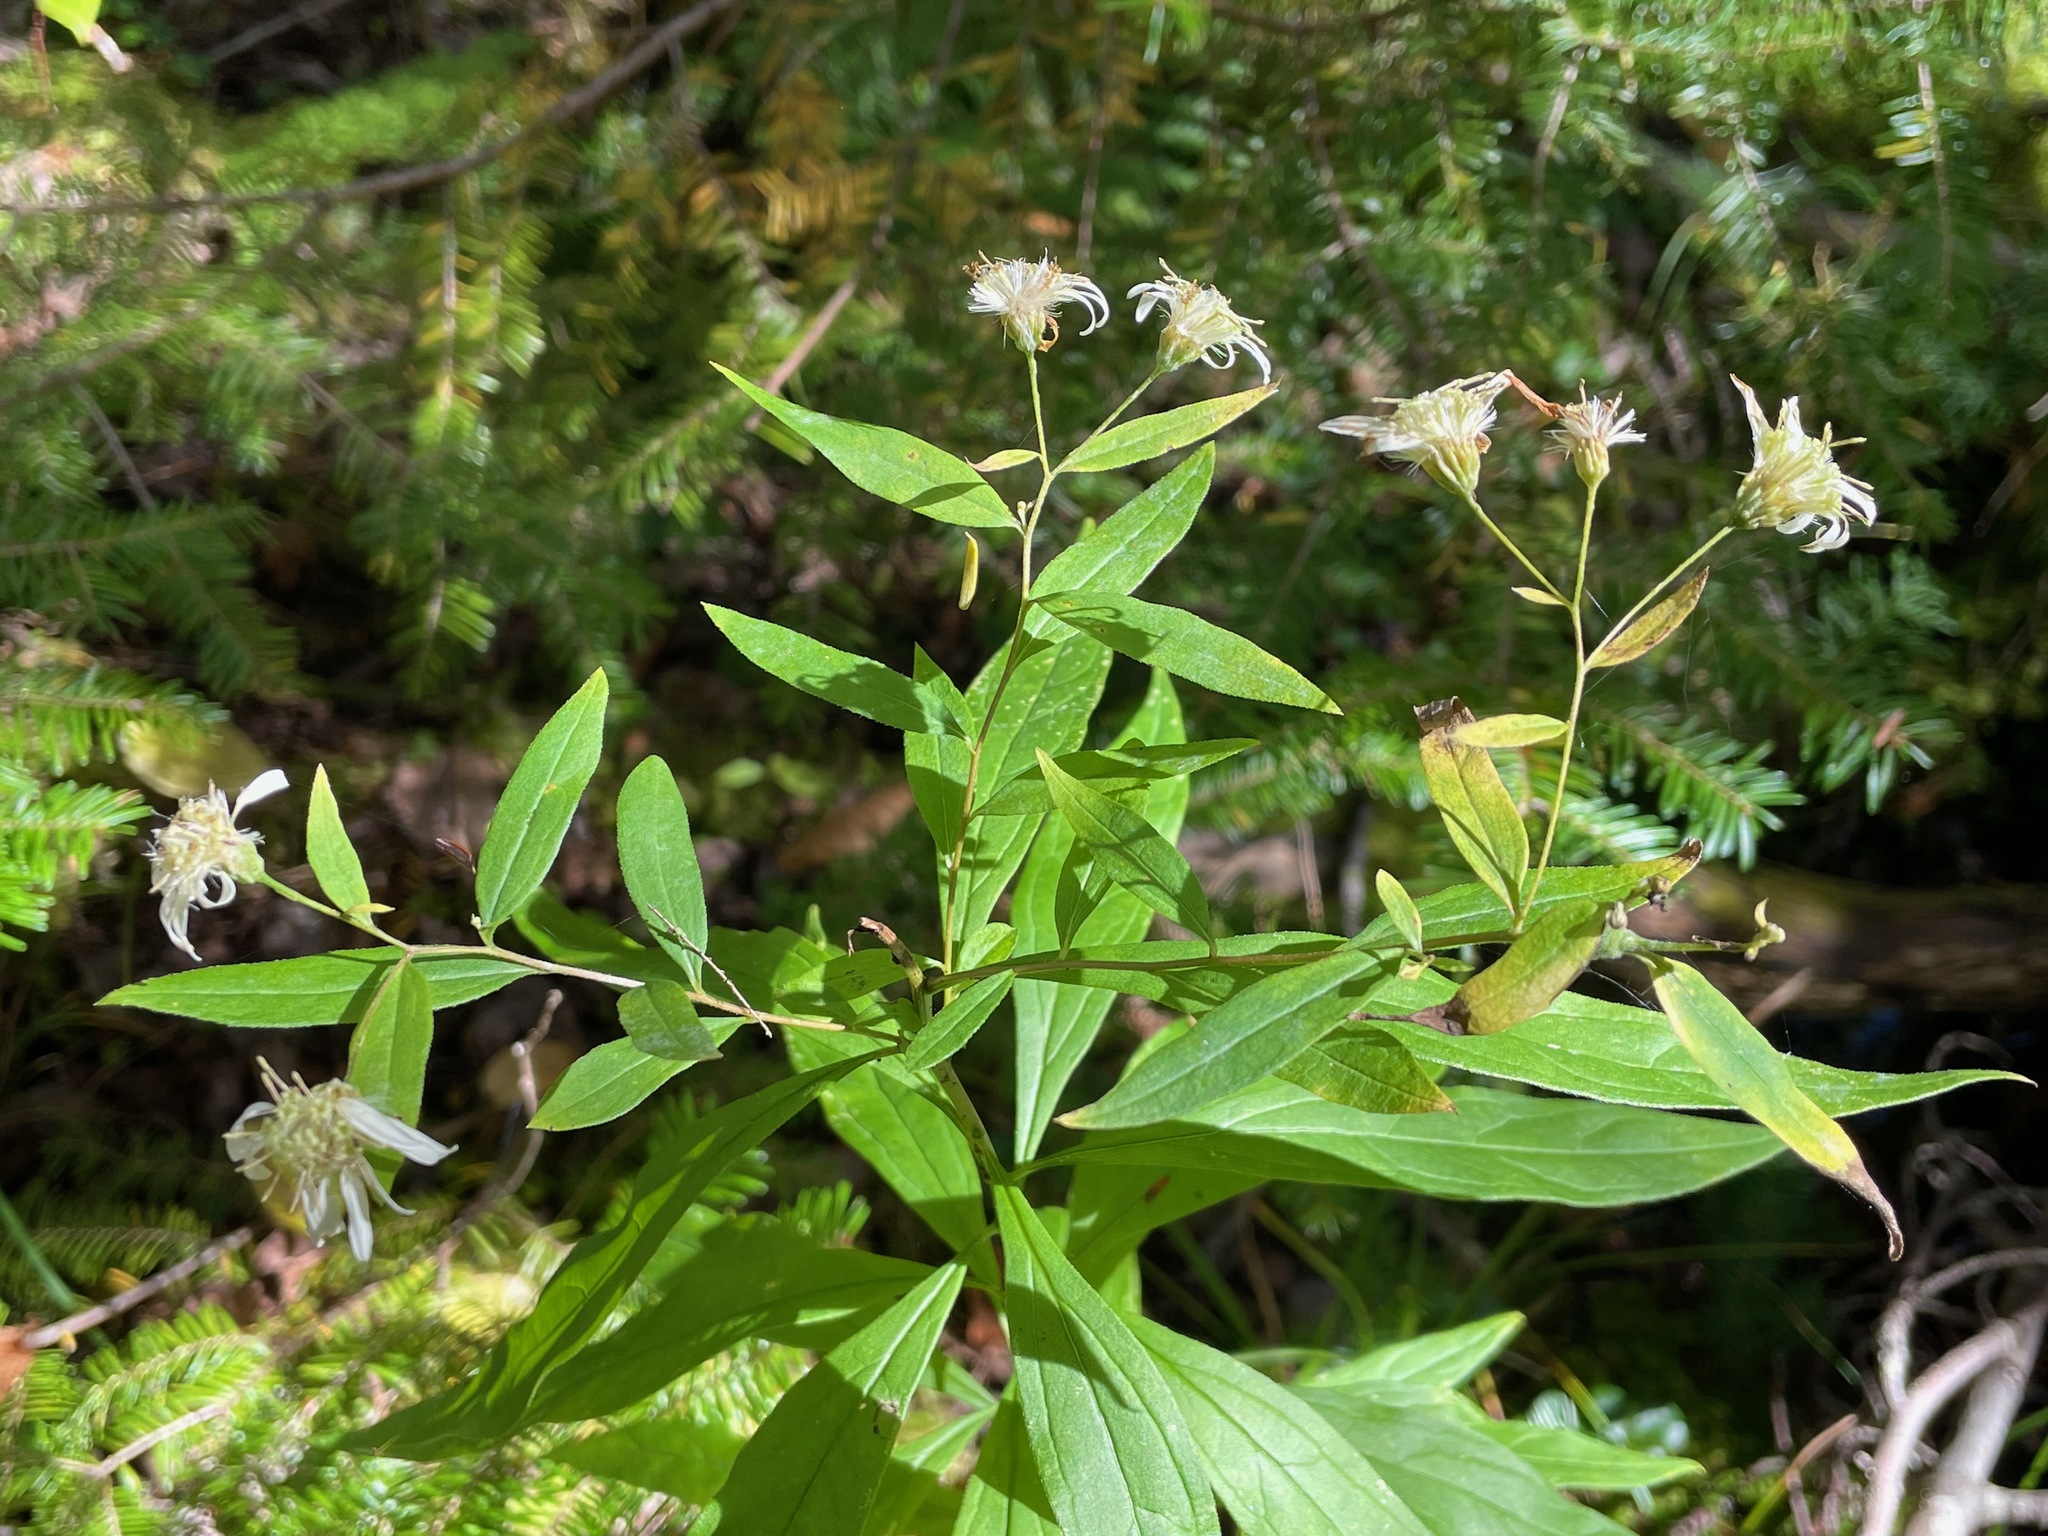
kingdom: Plantae
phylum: Tracheophyta
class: Magnoliopsida
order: Asterales
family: Asteraceae
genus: Doellingeria
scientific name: Doellingeria umbellata
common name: Flat-top white aster
